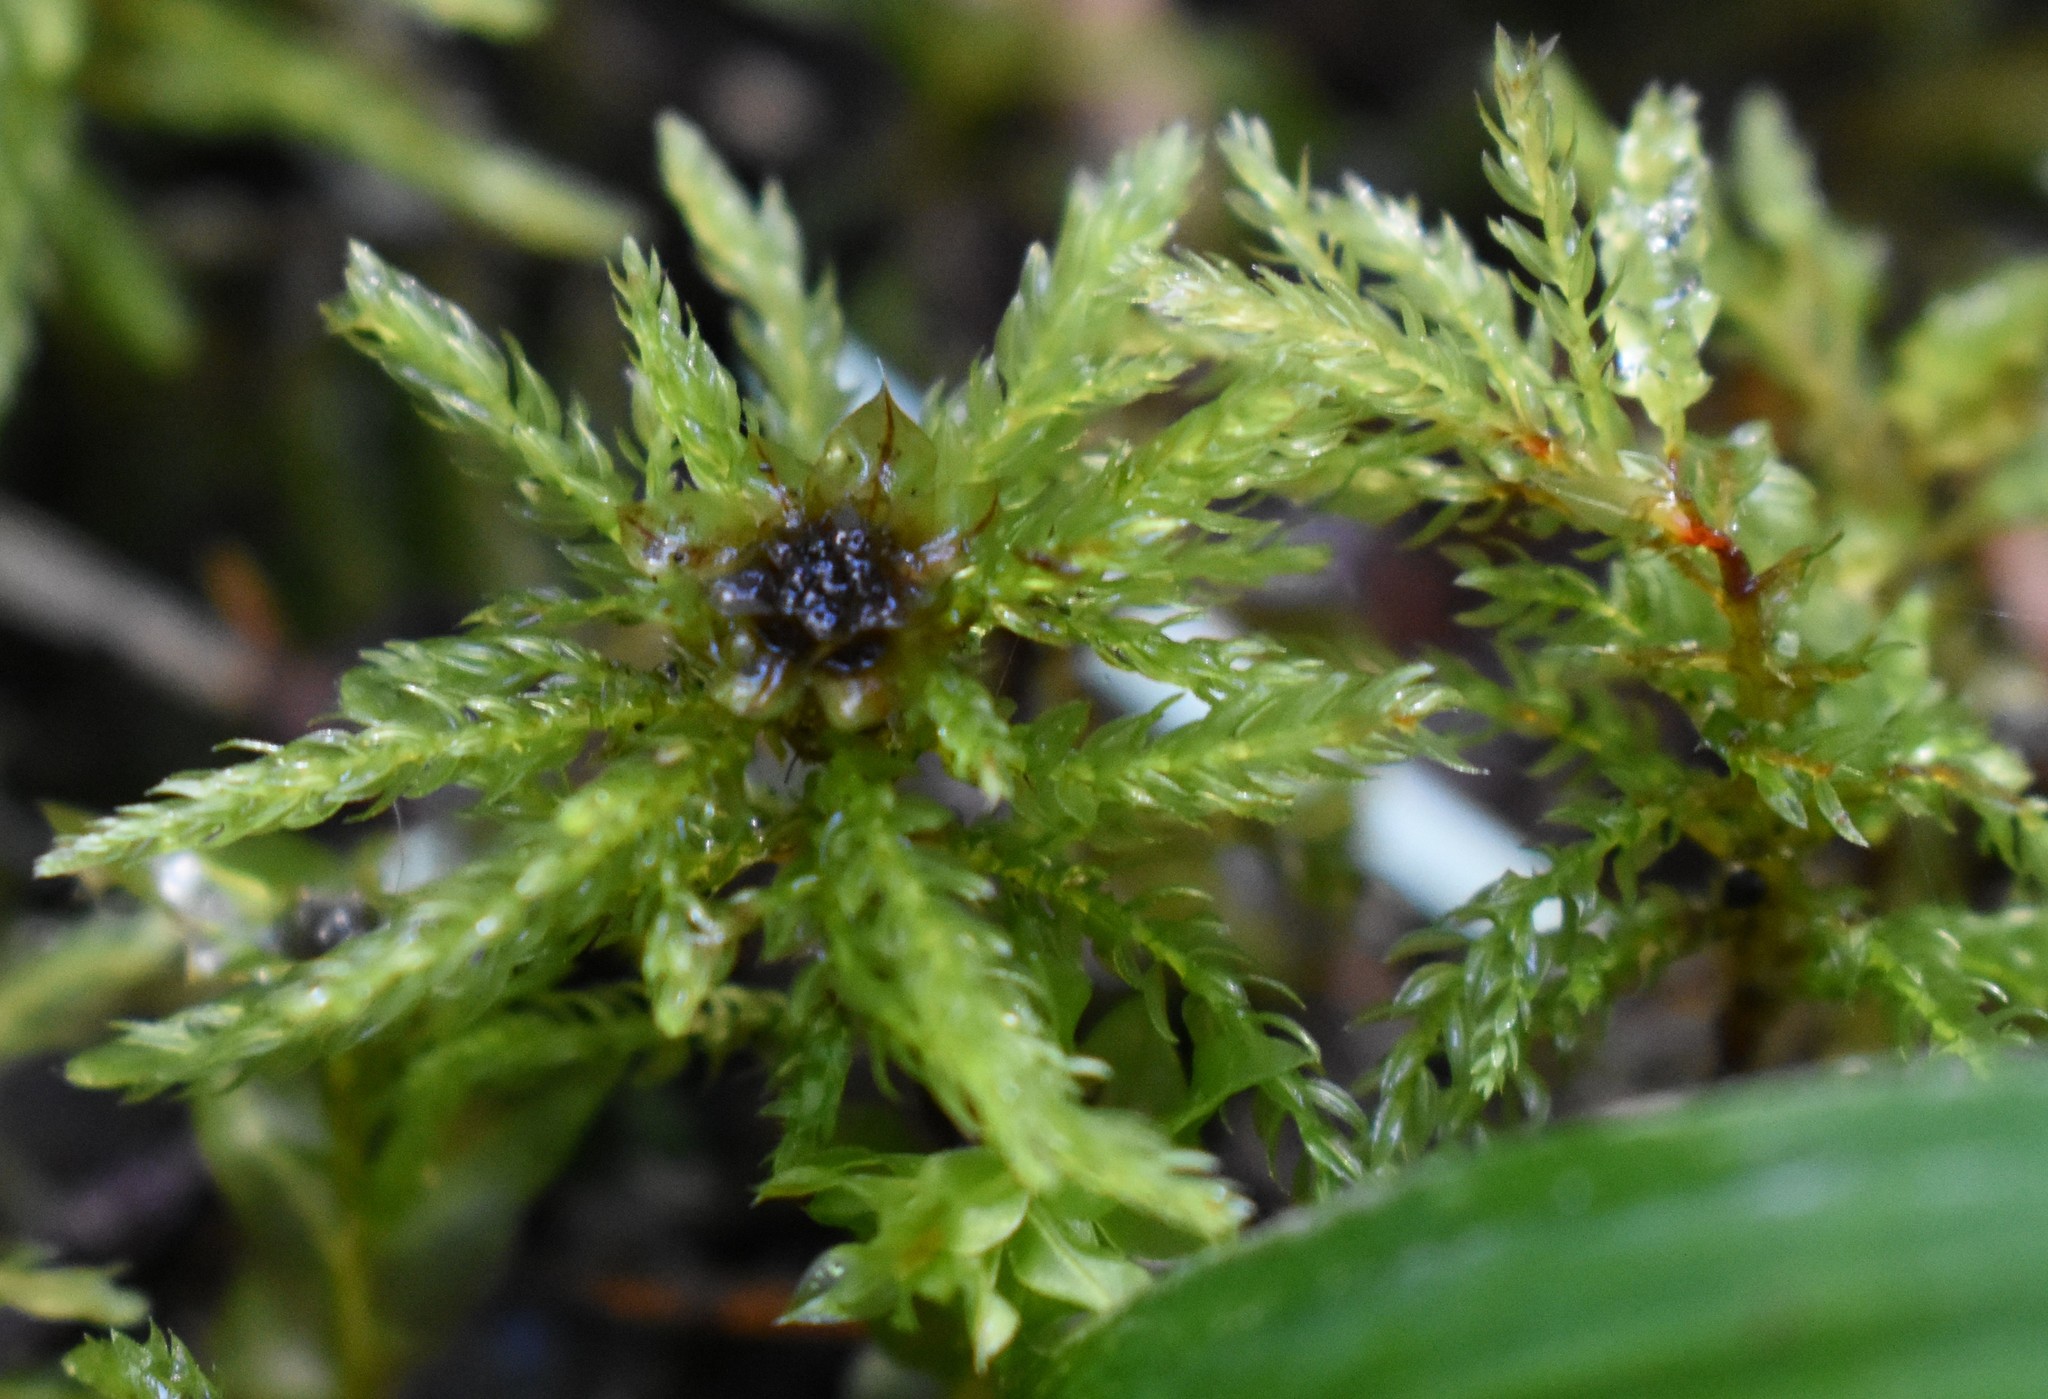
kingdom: Plantae
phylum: Bryophyta
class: Bryopsida
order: Bryales
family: Mniaceae
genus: Leucolepis
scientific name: Leucolepis acanthoneura
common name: Leucolepis umbrella moss
